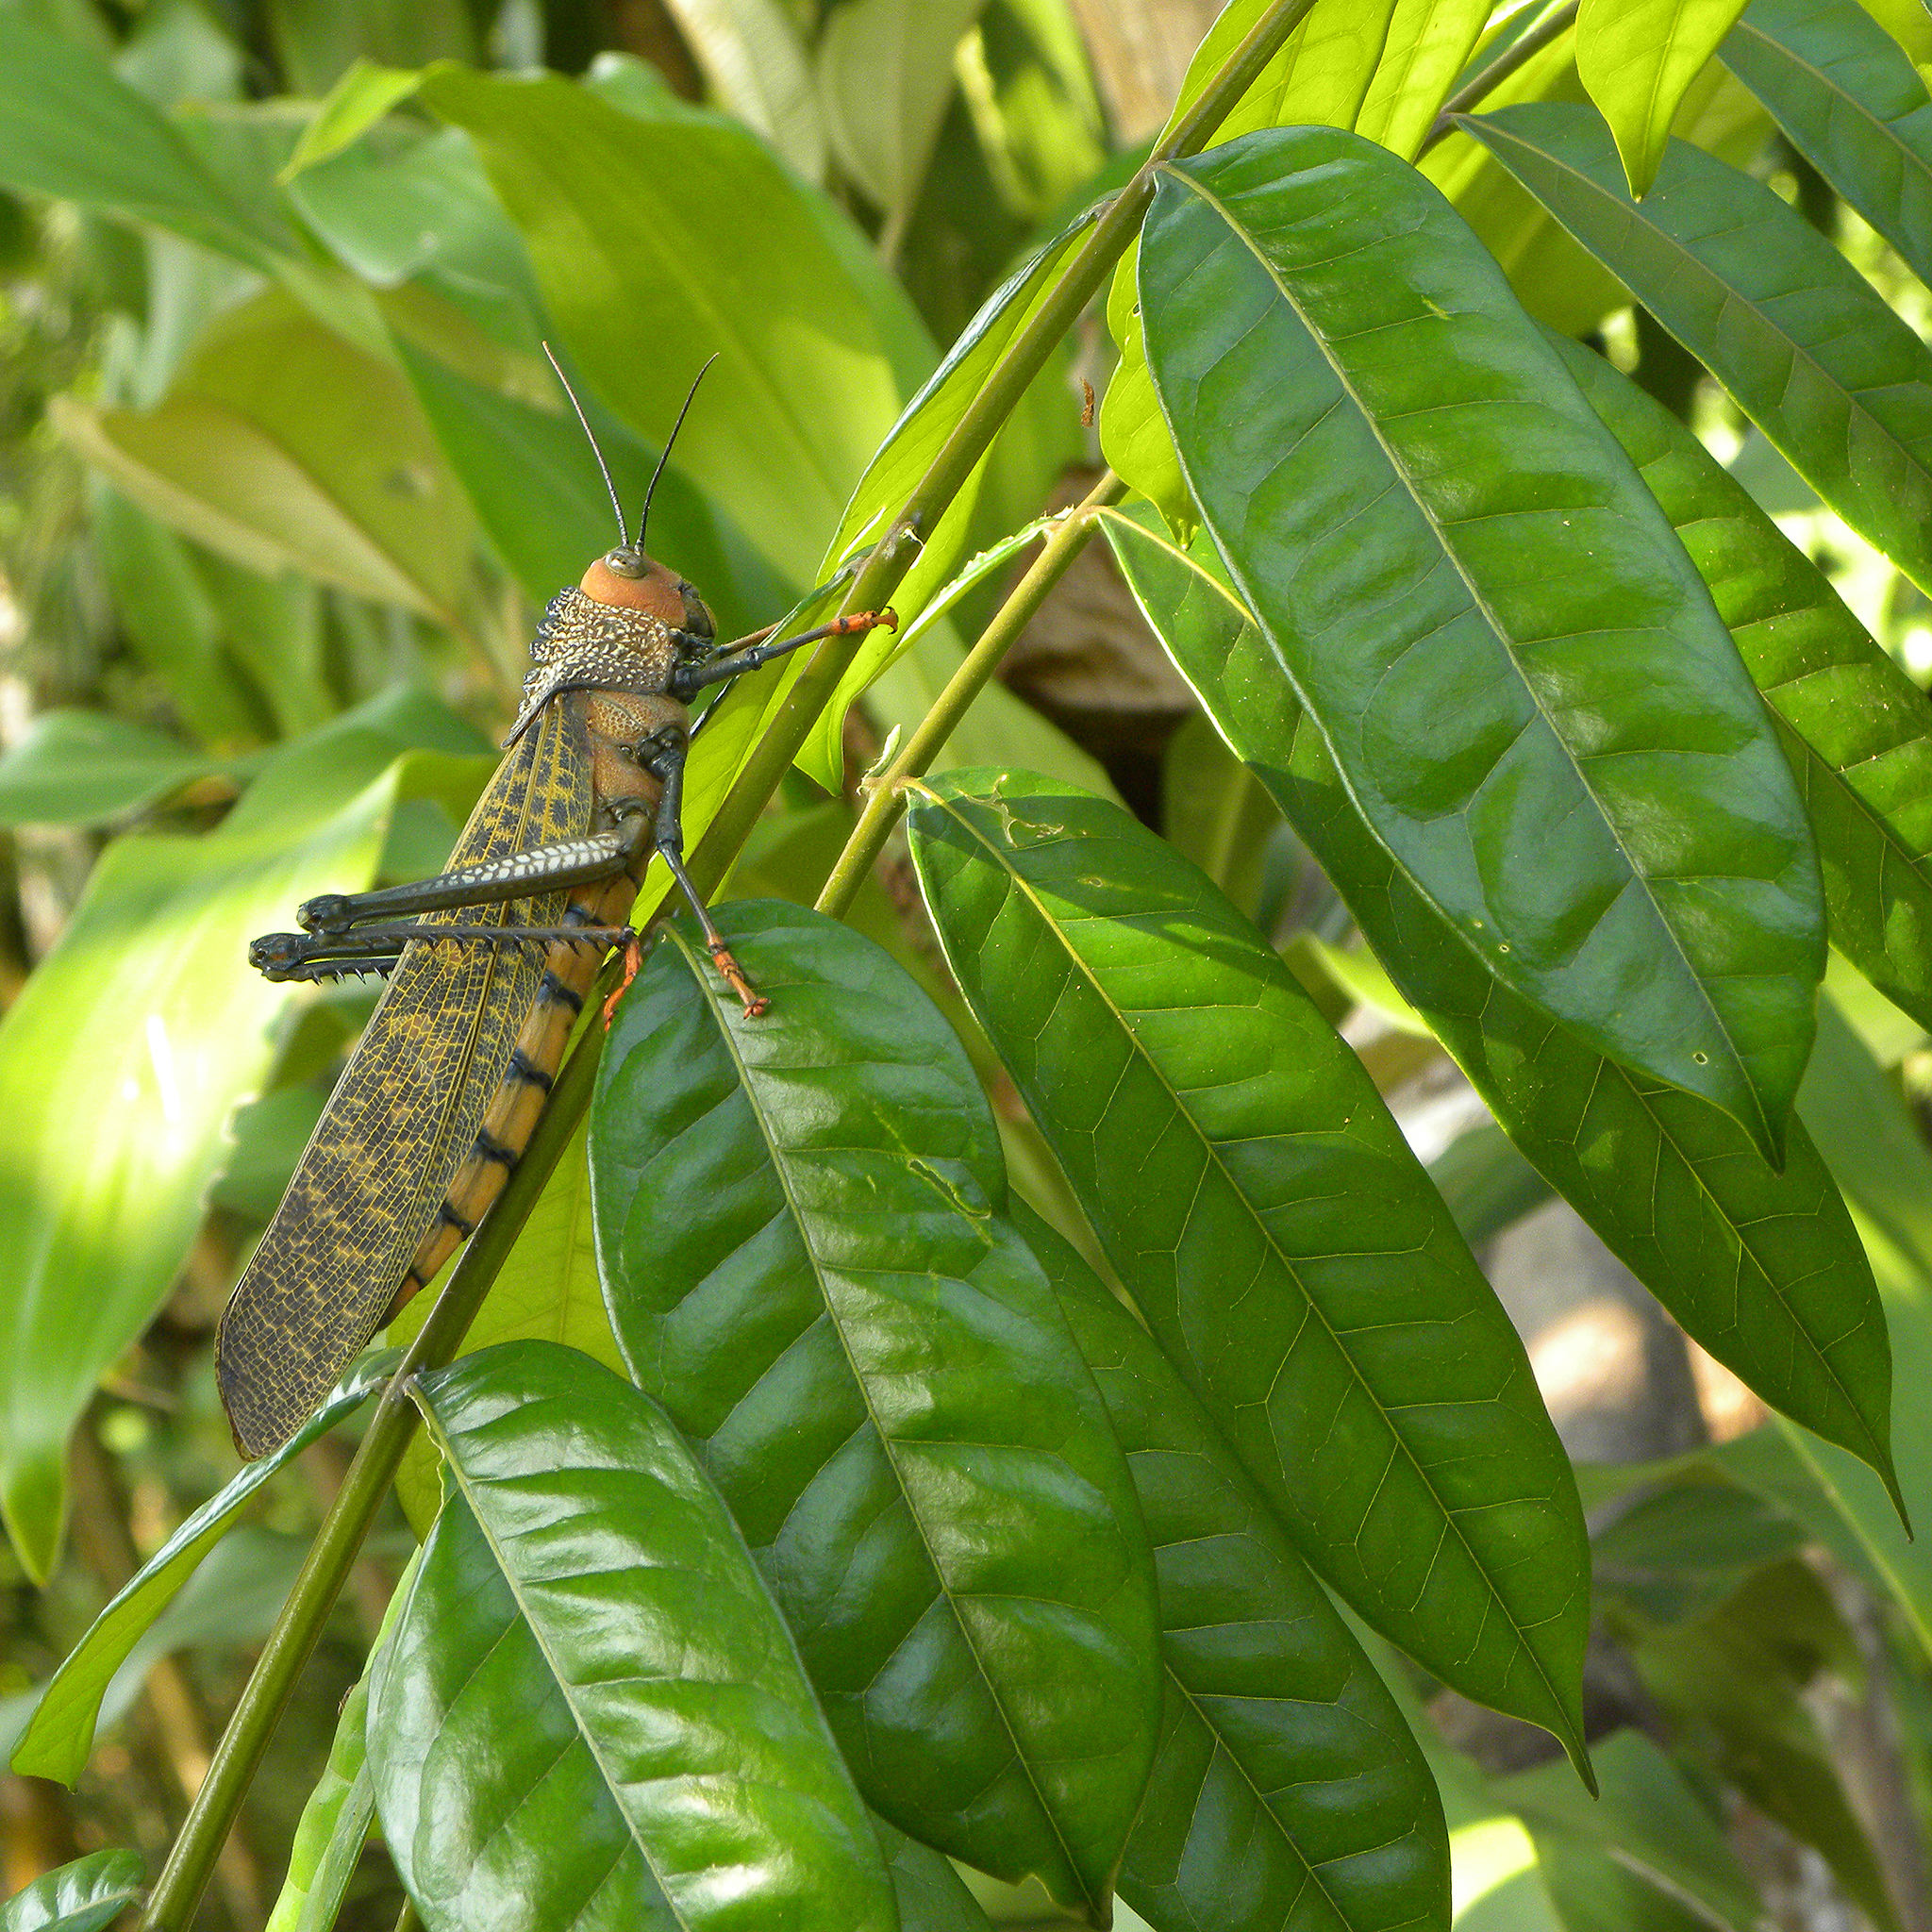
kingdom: Animalia
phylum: Arthropoda
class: Insecta
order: Orthoptera
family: Romaleidae
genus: Tropidacris
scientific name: Tropidacris cristata
